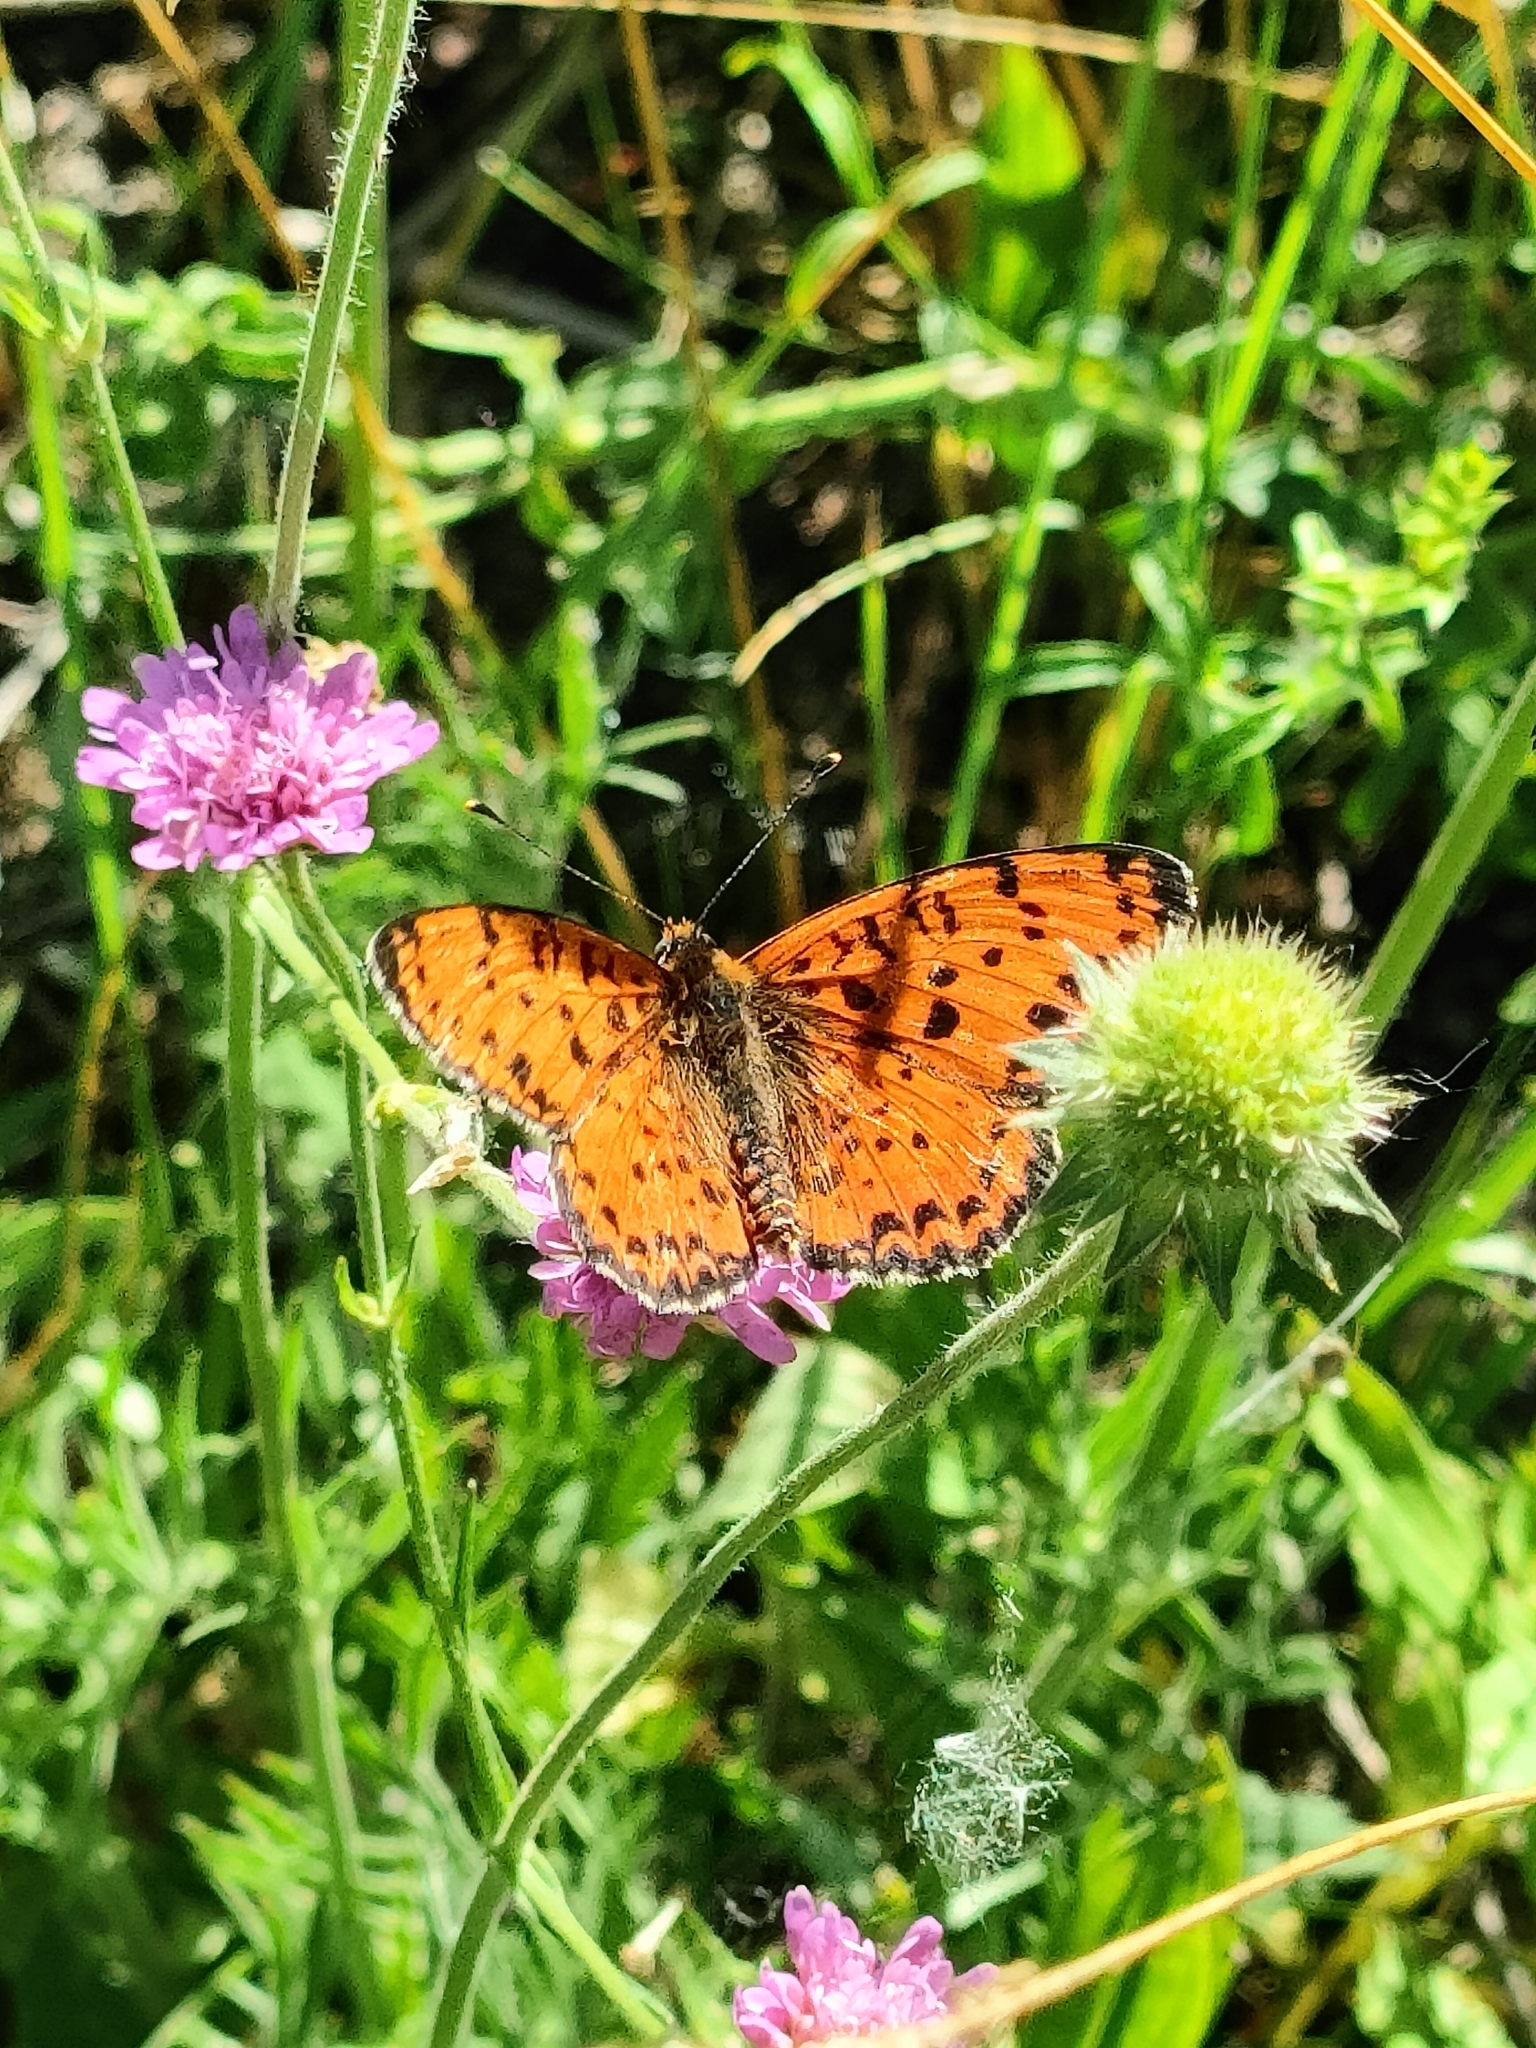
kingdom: Animalia
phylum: Arthropoda
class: Insecta
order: Lepidoptera
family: Nymphalidae
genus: Melitaea
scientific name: Melitaea didyma
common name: Spotted fritillary
